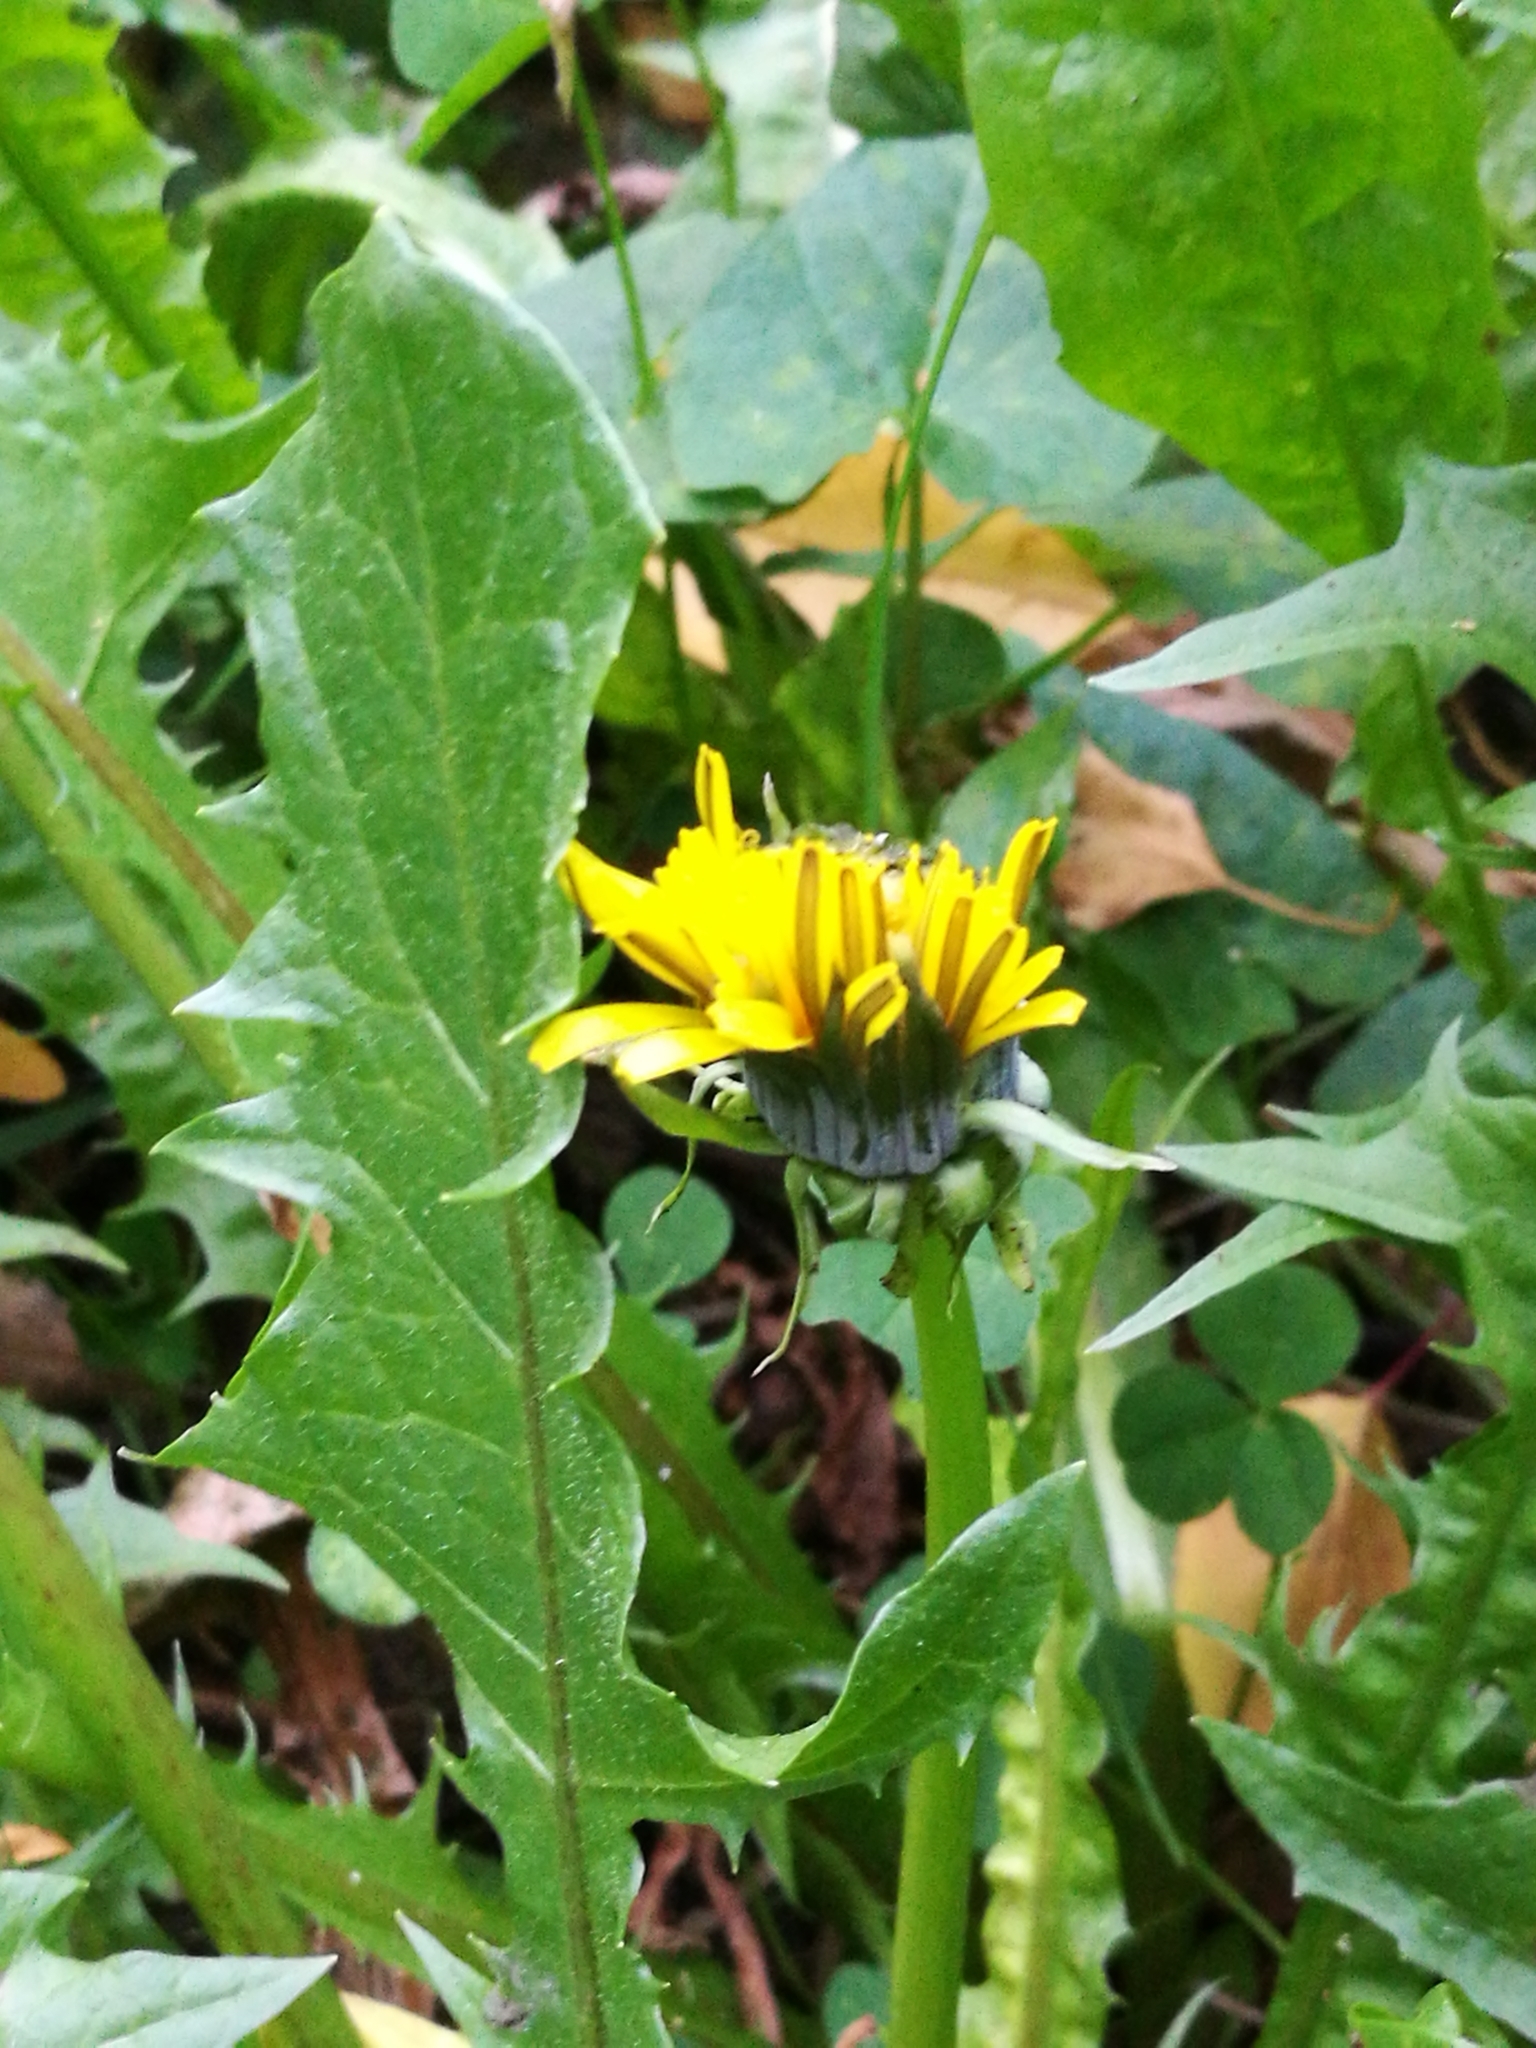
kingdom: Plantae
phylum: Tracheophyta
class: Magnoliopsida
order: Asterales
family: Asteraceae
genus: Taraxacum
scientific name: Taraxacum officinale
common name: Common dandelion
